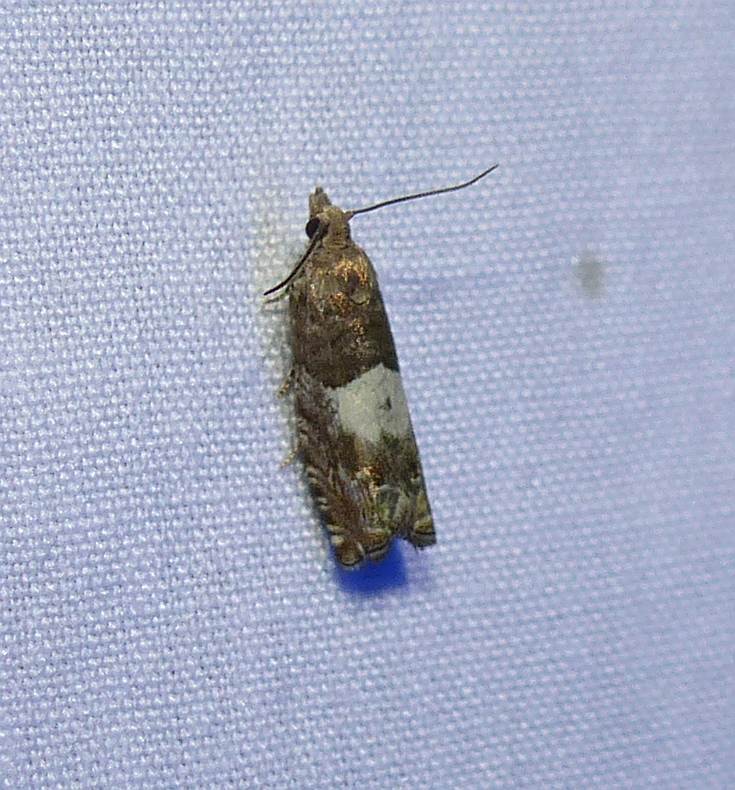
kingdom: Animalia
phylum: Arthropoda
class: Insecta
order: Lepidoptera
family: Tortricidae
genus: Epinotia
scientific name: Epinotia transmissana
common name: Walker's epinotia moth
